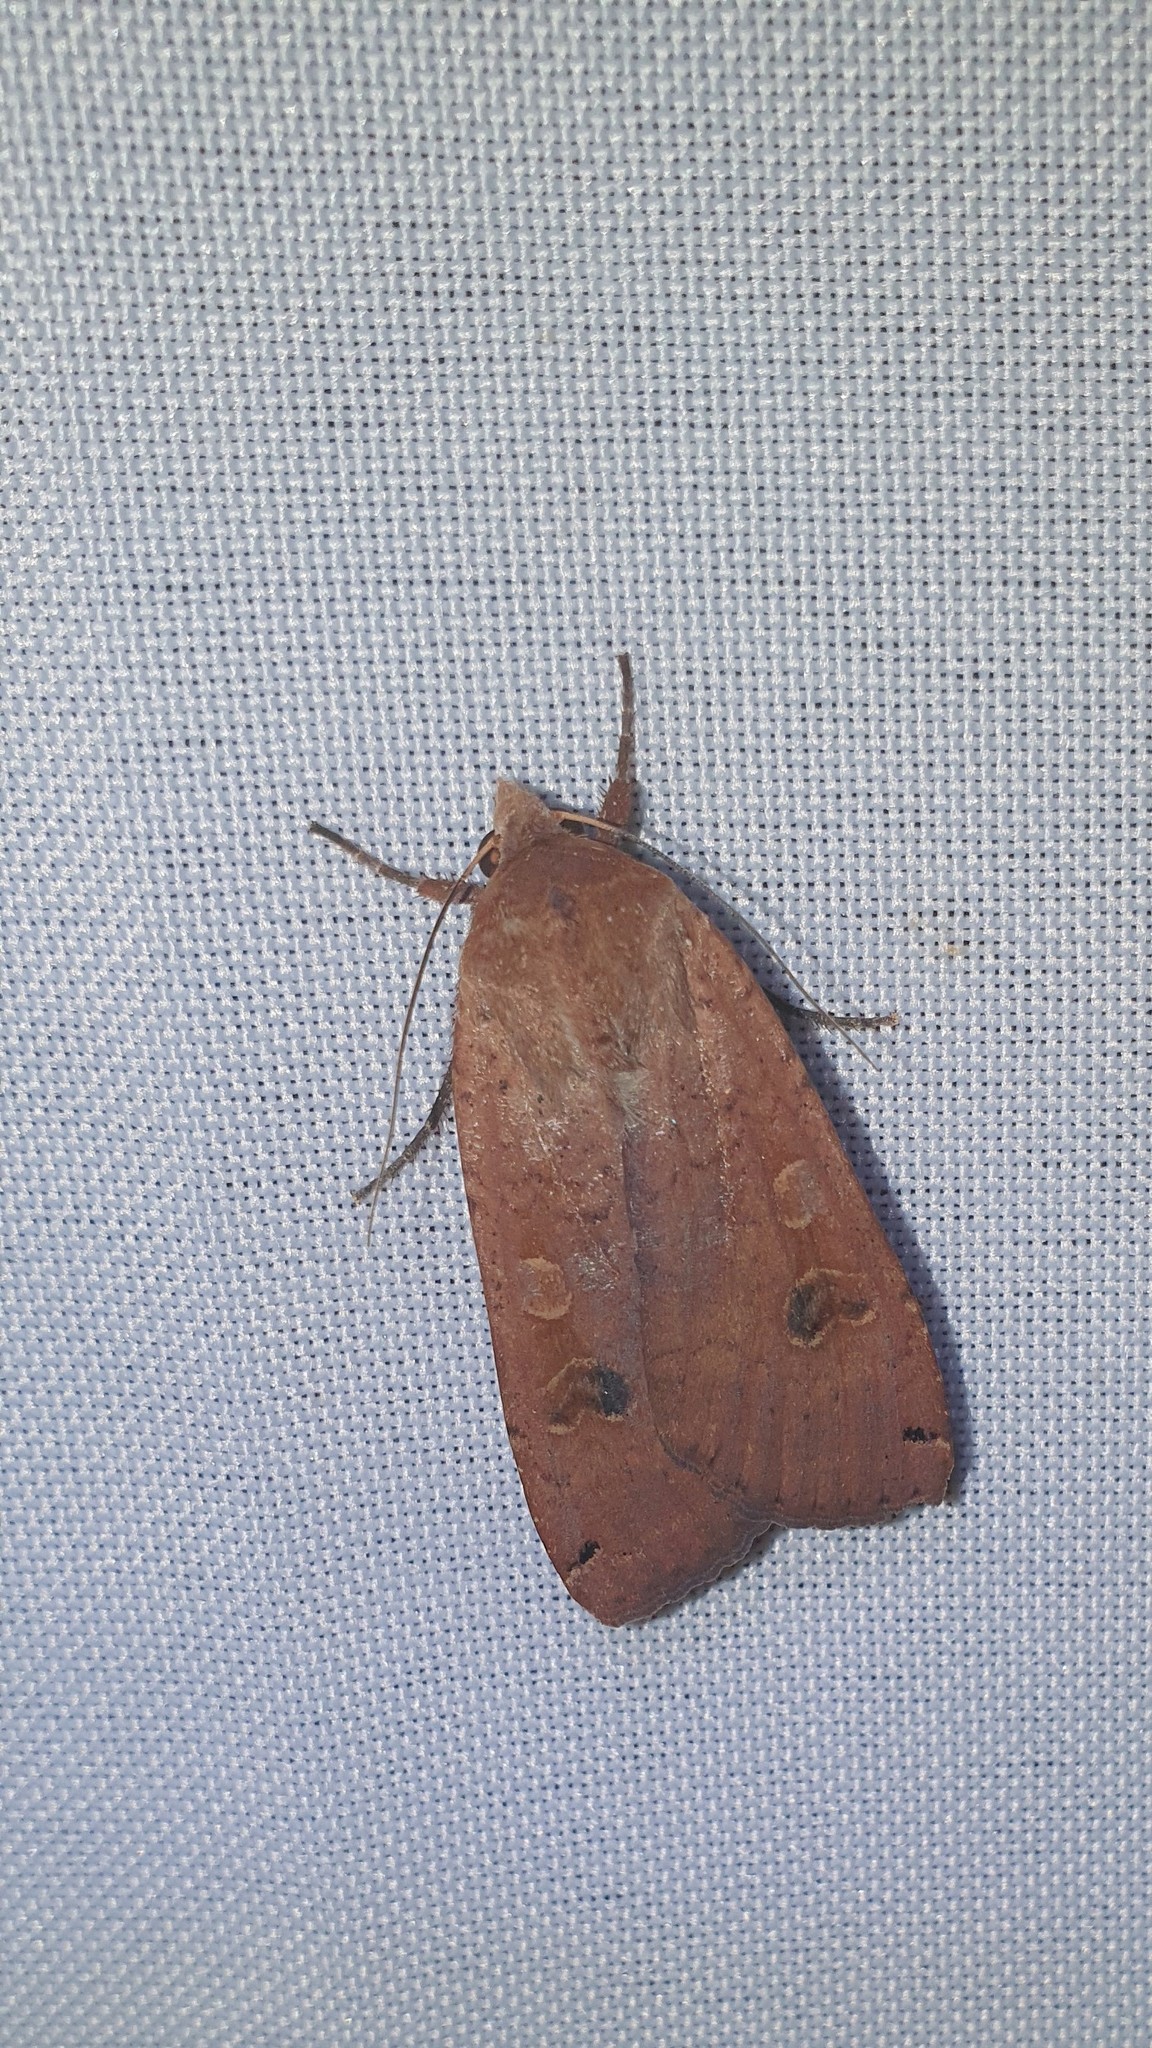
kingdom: Animalia
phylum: Arthropoda
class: Insecta
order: Lepidoptera
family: Noctuidae
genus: Noctua
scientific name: Noctua pronuba
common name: Large yellow underwing
